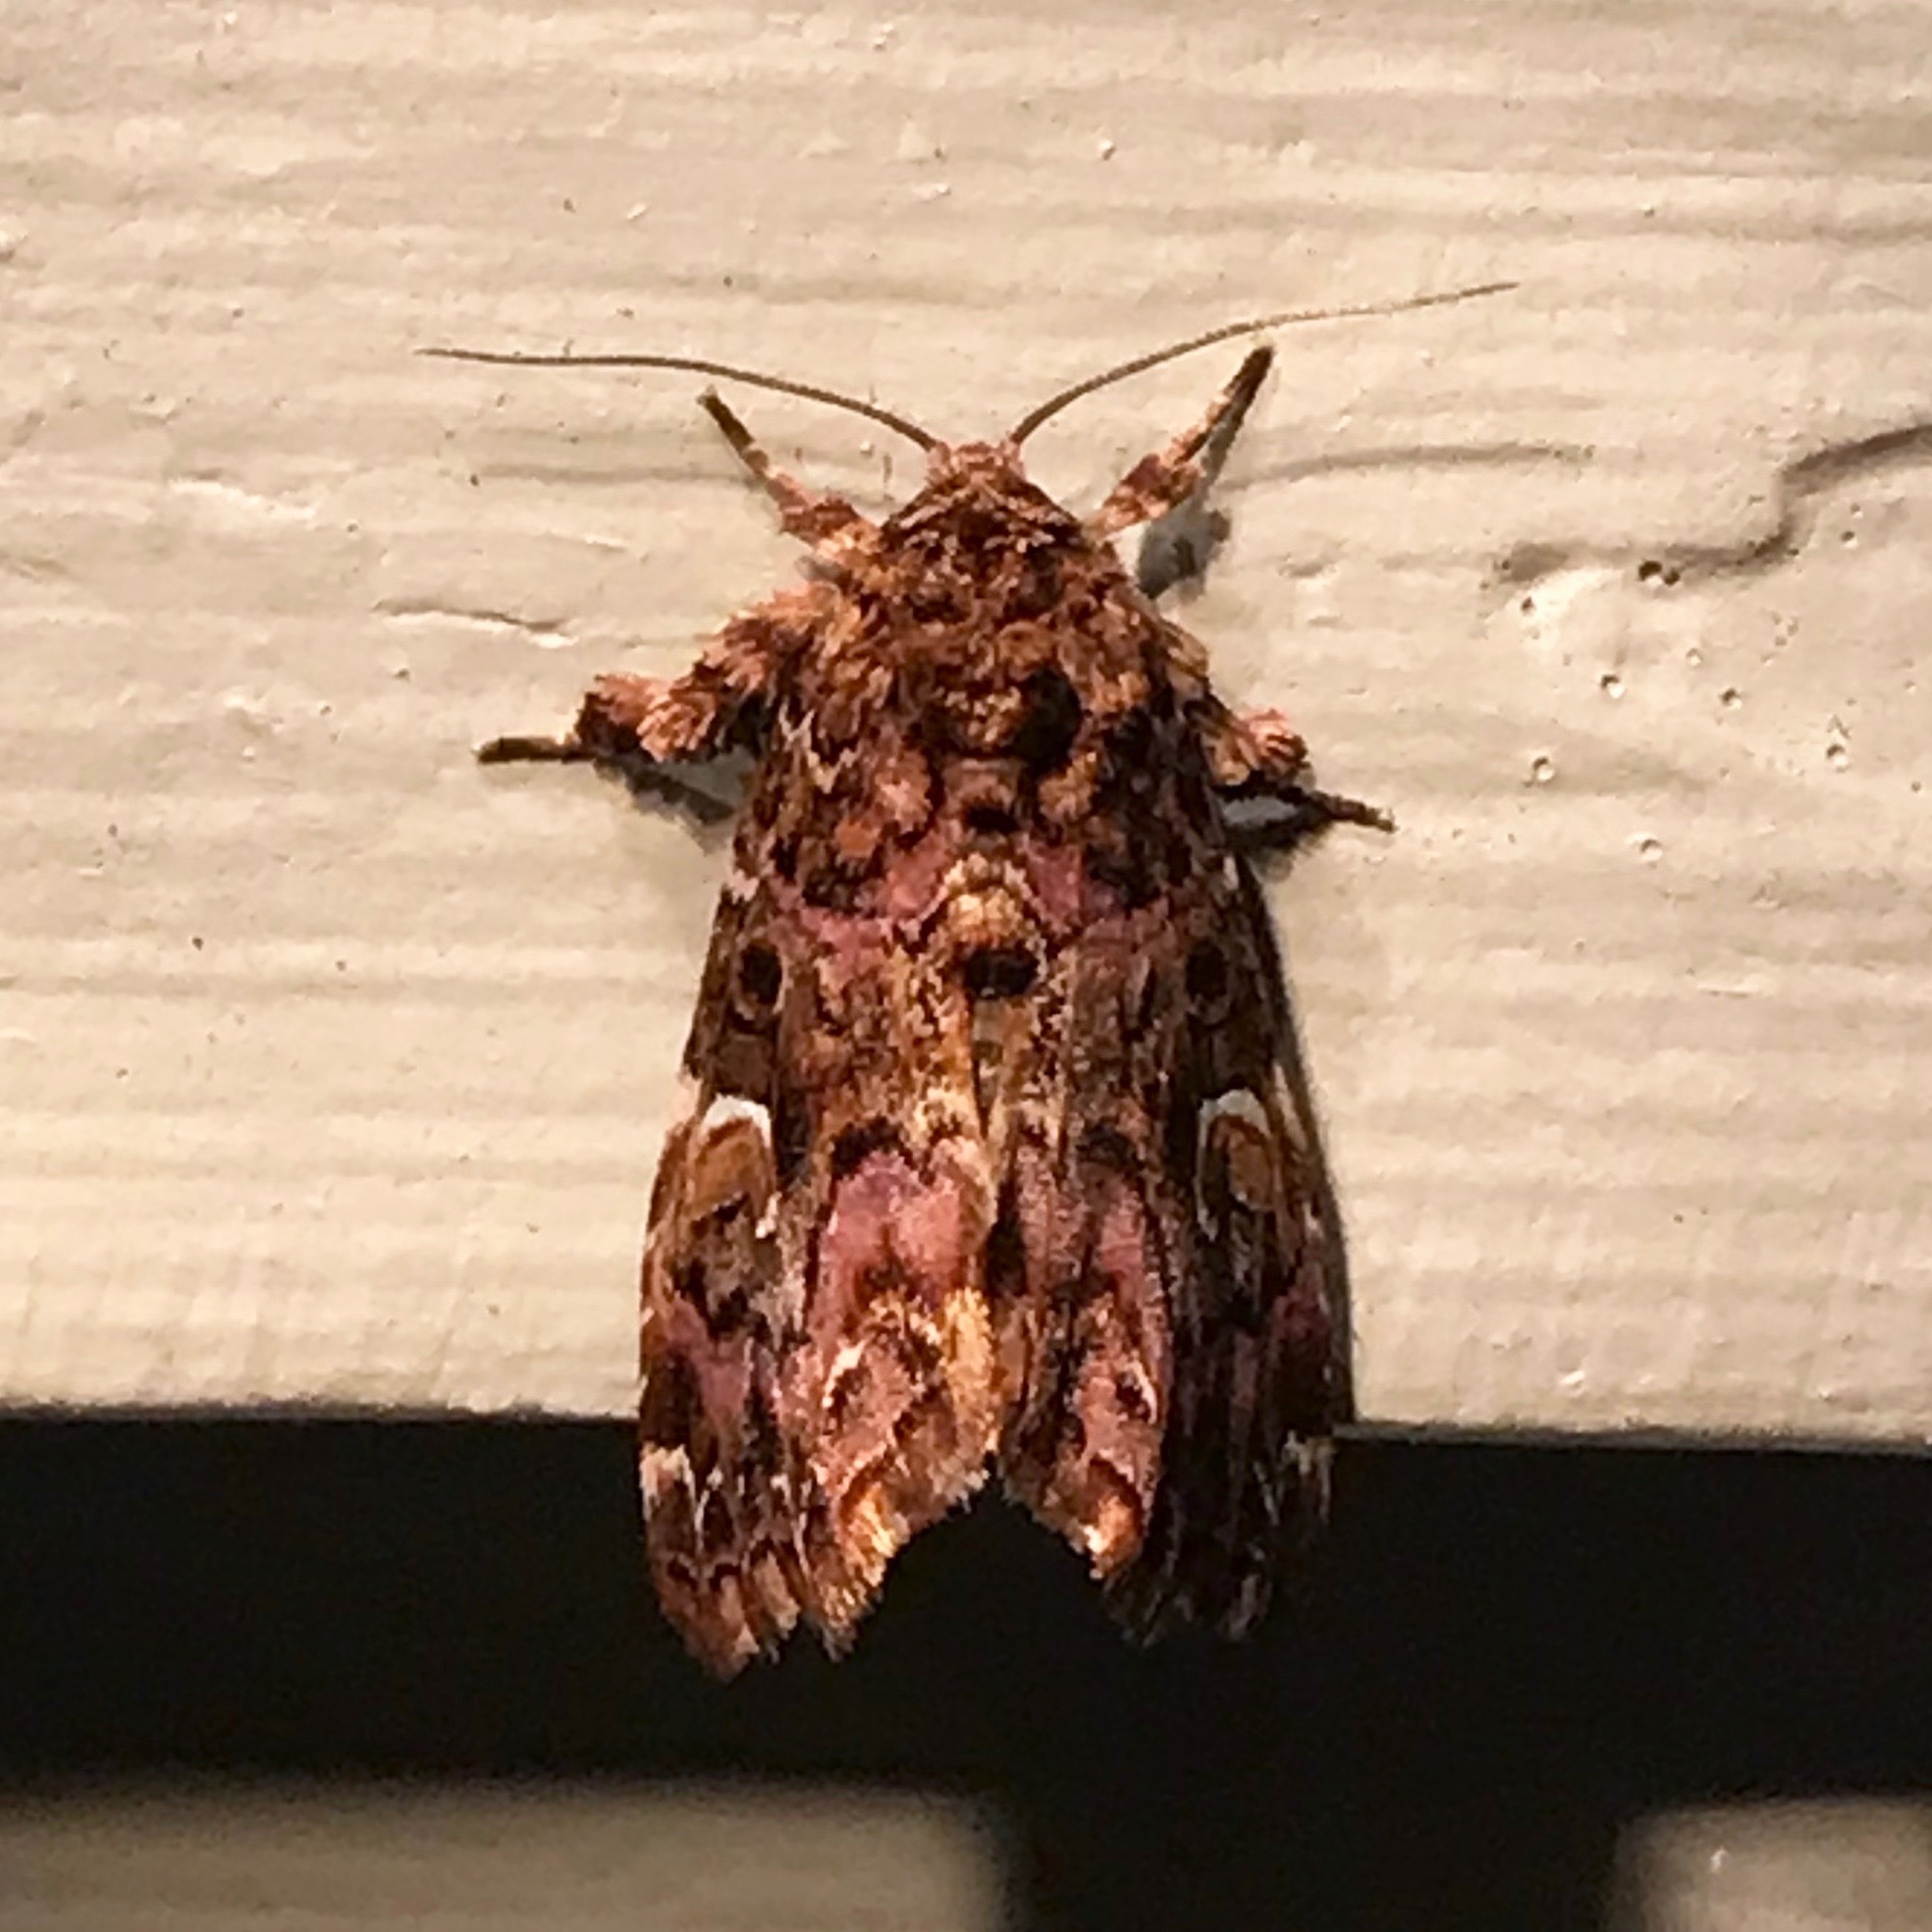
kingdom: Animalia
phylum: Arthropoda
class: Insecta
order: Lepidoptera
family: Noctuidae
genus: Callopistria
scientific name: Callopistria mollissima
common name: Pink-shaded fern moth
